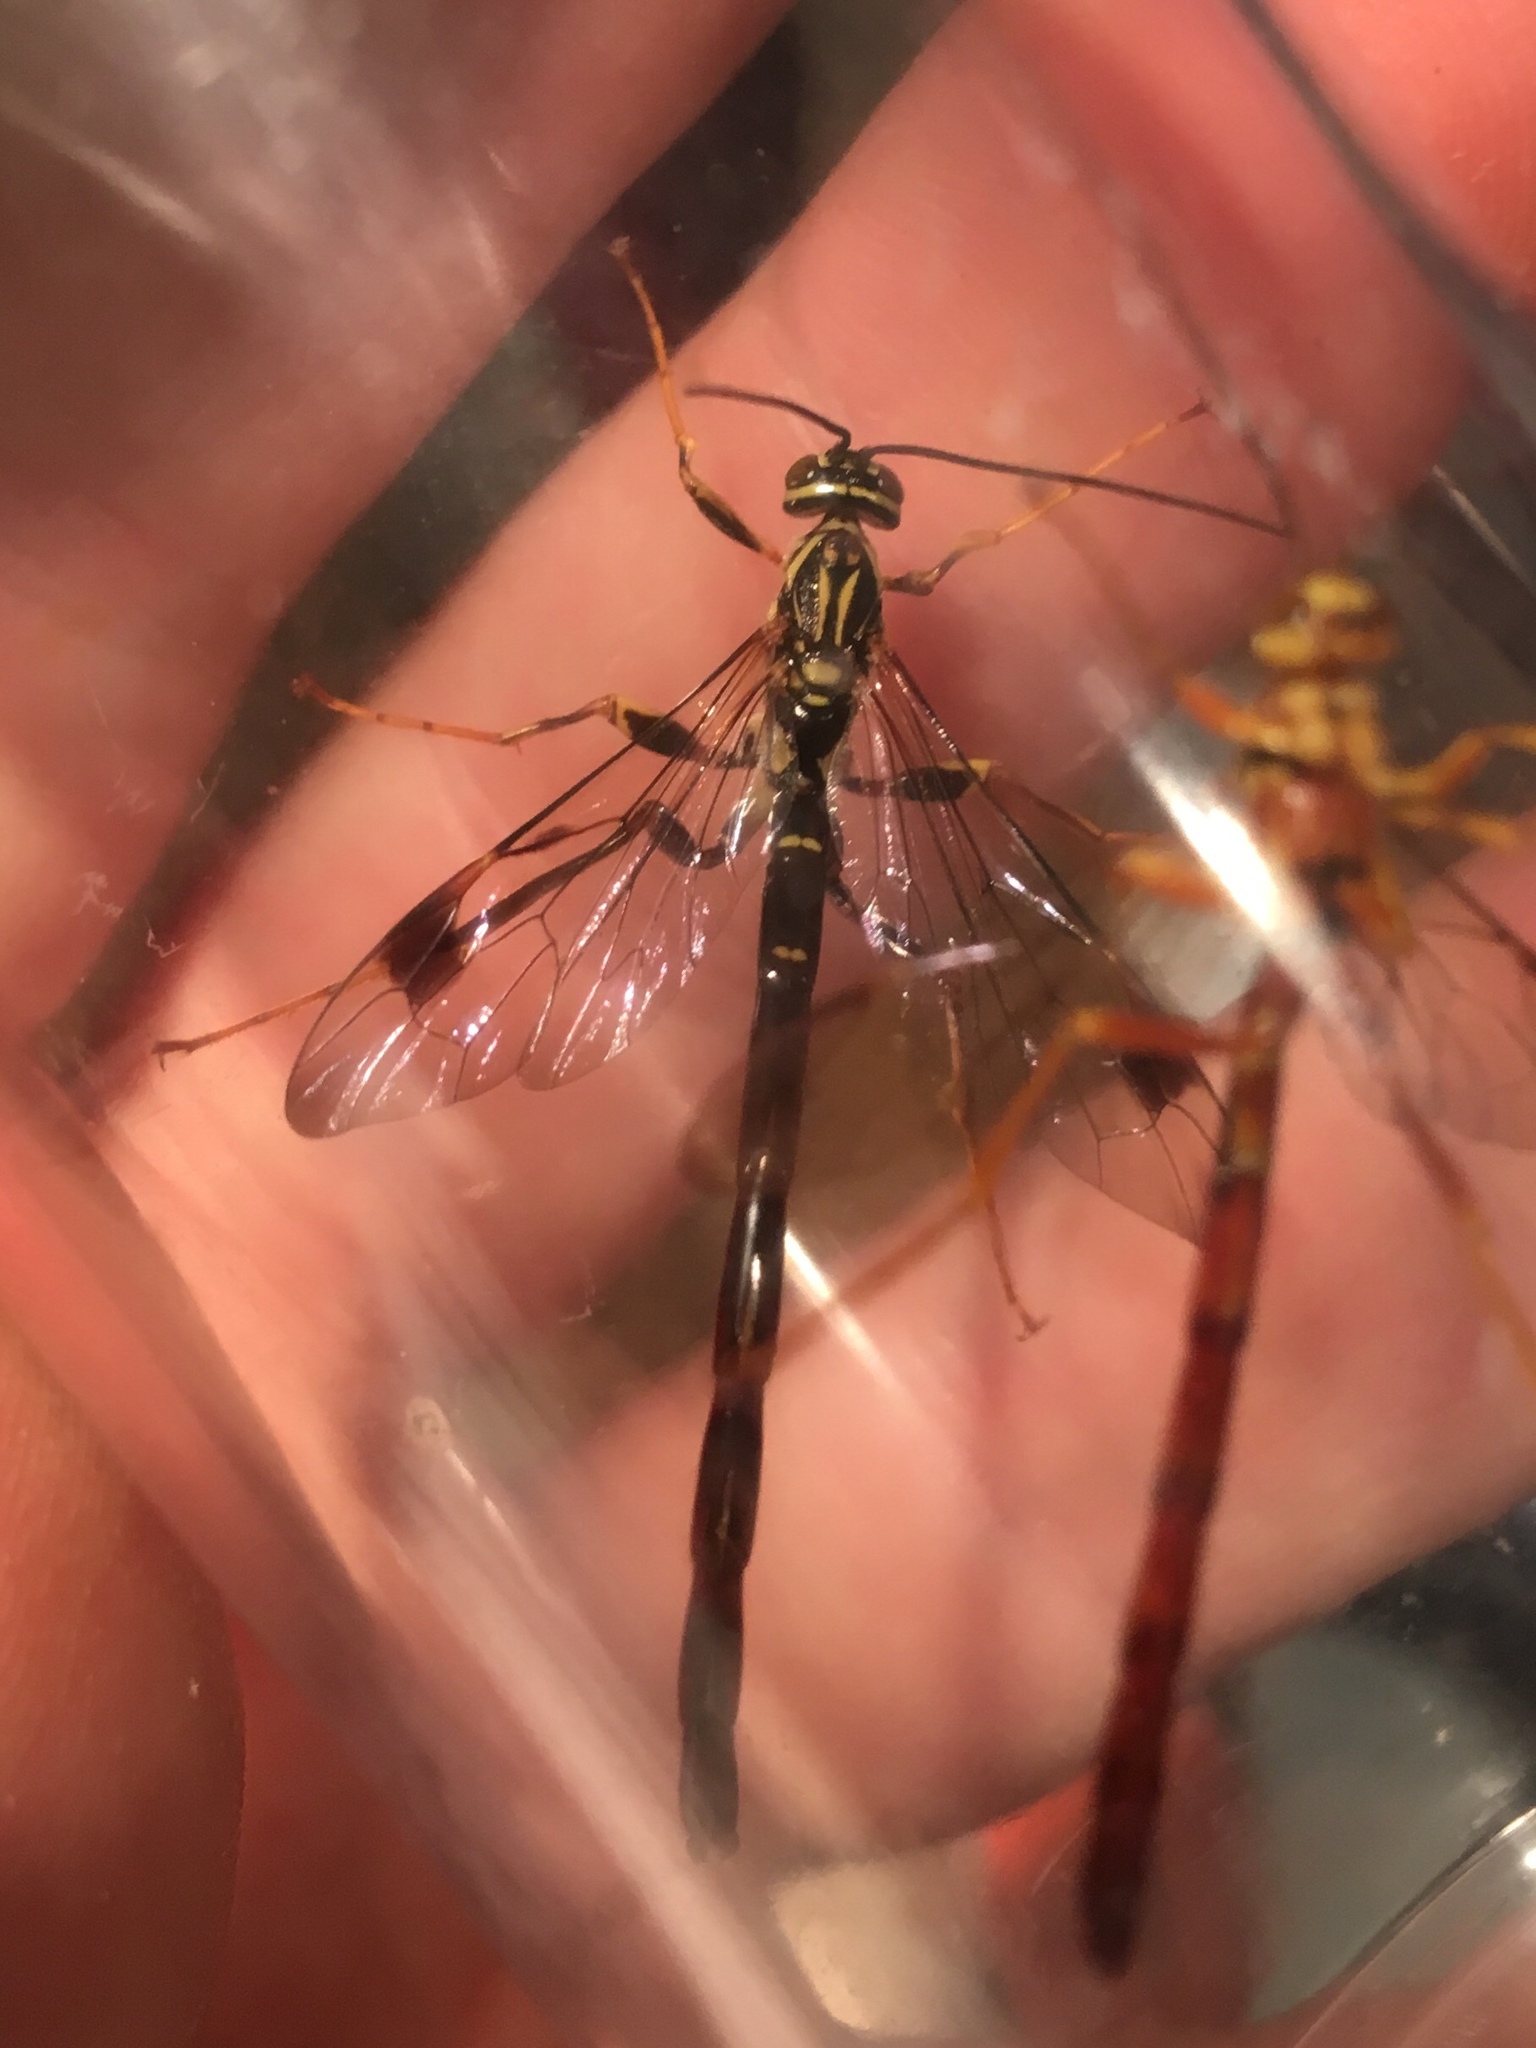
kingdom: Animalia
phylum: Arthropoda
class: Insecta
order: Hymenoptera
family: Ichneumonidae
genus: Megarhyssa
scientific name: Megarhyssa macrura
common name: Long-tailed giant ichneumonid wasp
